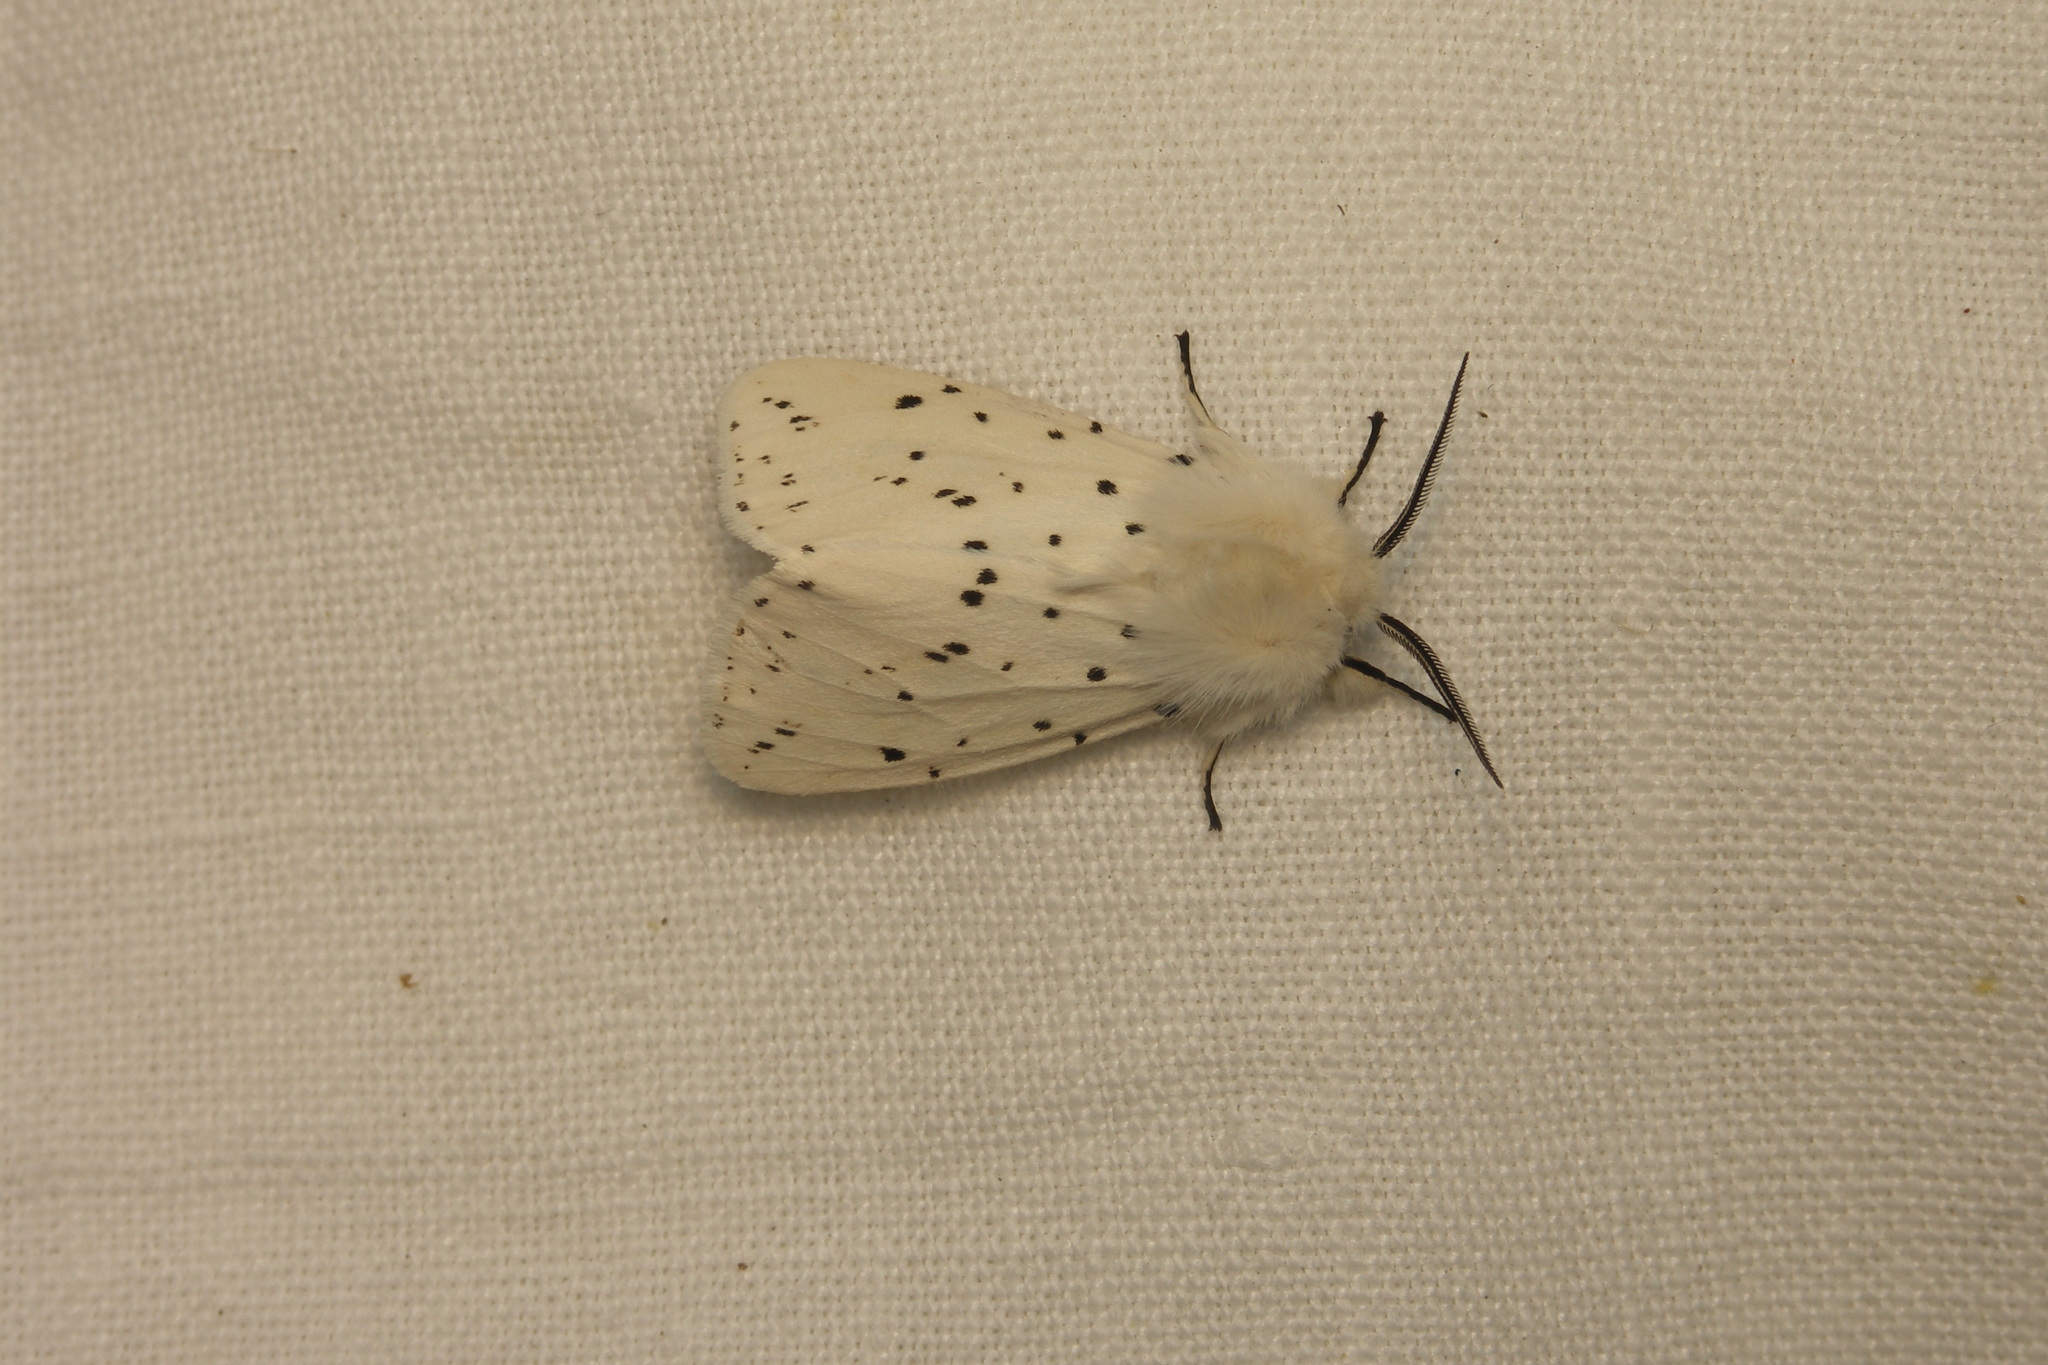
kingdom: Animalia
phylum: Arthropoda
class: Insecta
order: Lepidoptera
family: Erebidae
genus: Spilosoma
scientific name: Spilosoma lubricipeda
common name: White ermine
